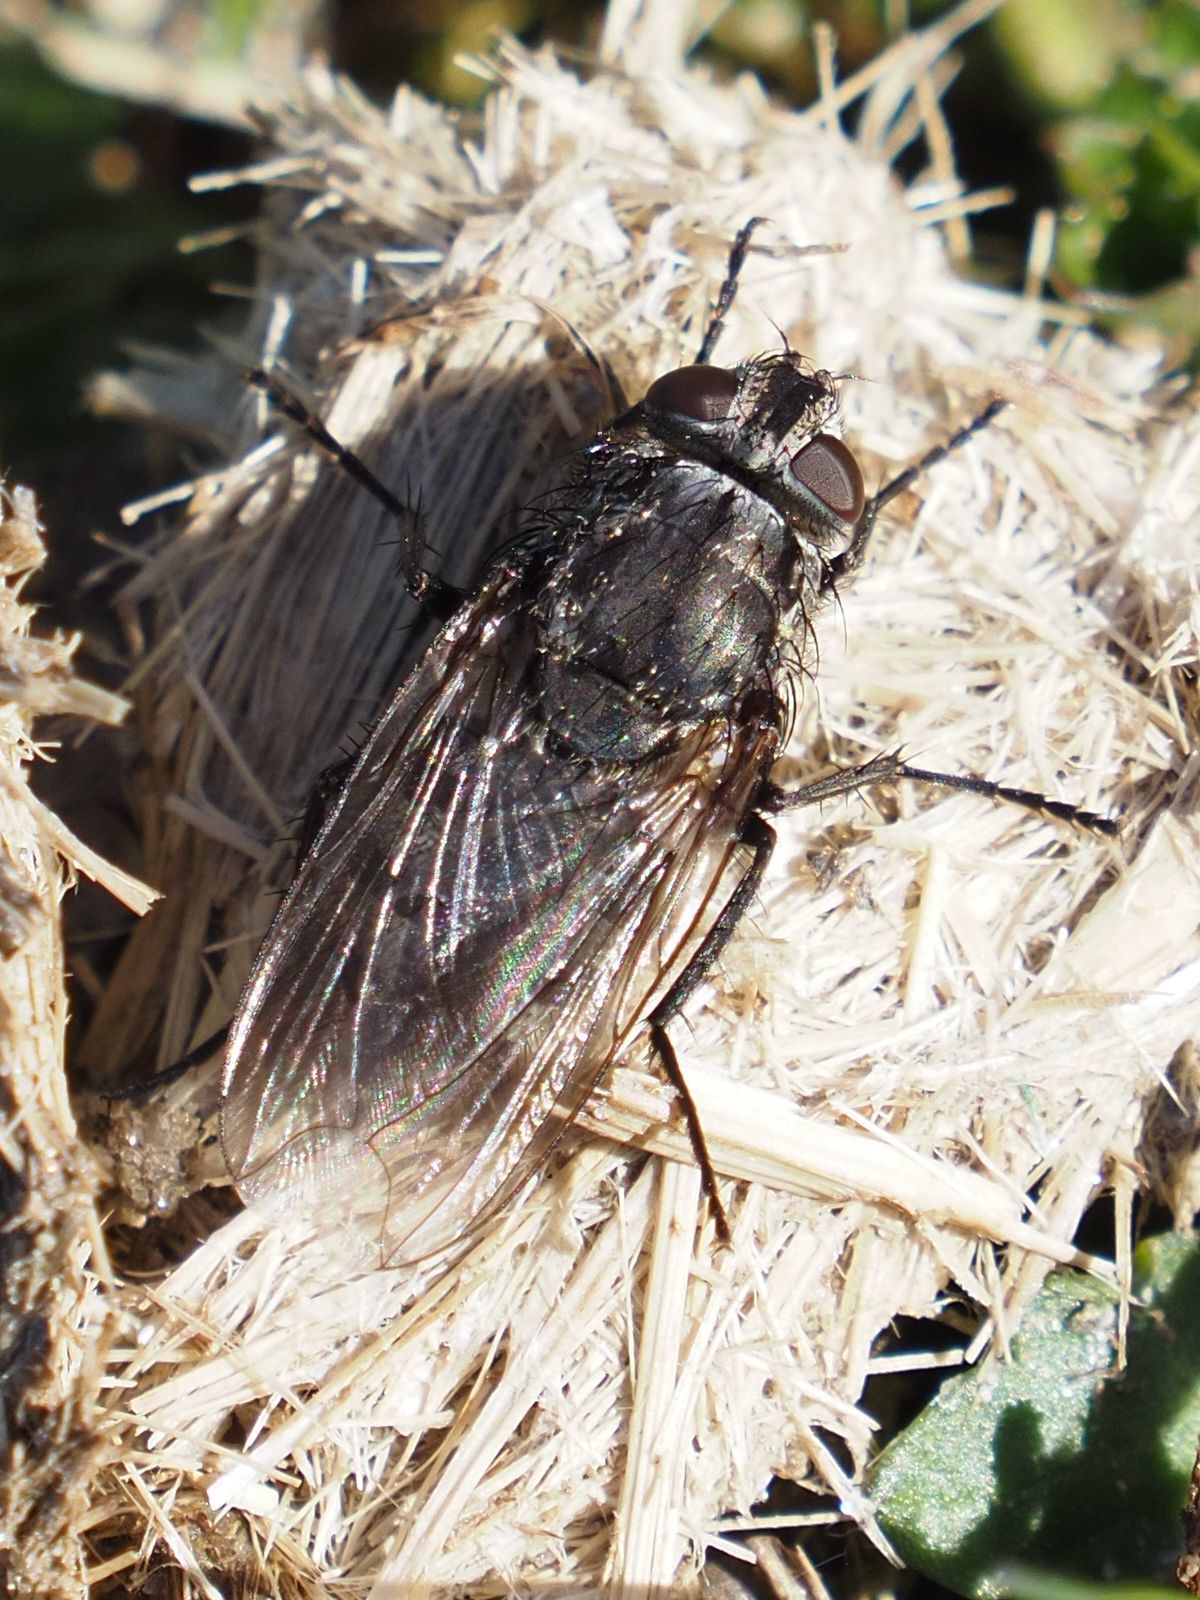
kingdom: Animalia
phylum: Arthropoda
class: Insecta
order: Diptera
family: Polleniidae
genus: Pollenia
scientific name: Pollenia vagabunda
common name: Vagabund cluster fly
